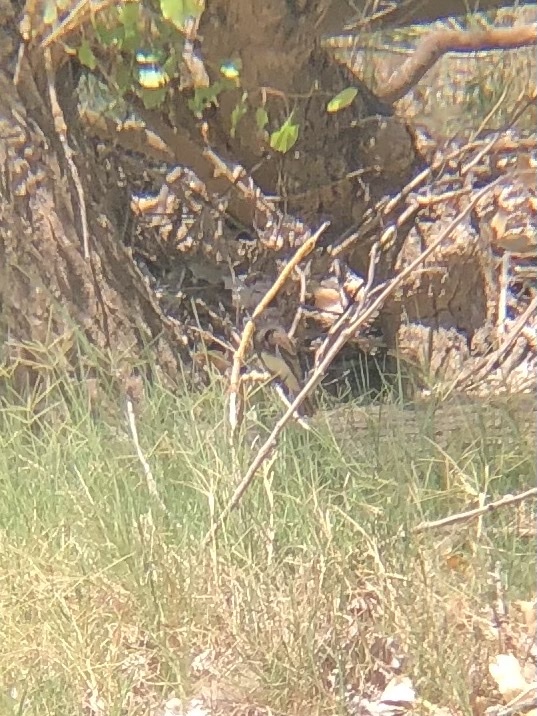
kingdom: Animalia
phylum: Chordata
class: Aves
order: Passeriformes
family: Tyrannidae
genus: Sayornis
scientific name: Sayornis nigricans
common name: Black phoebe
